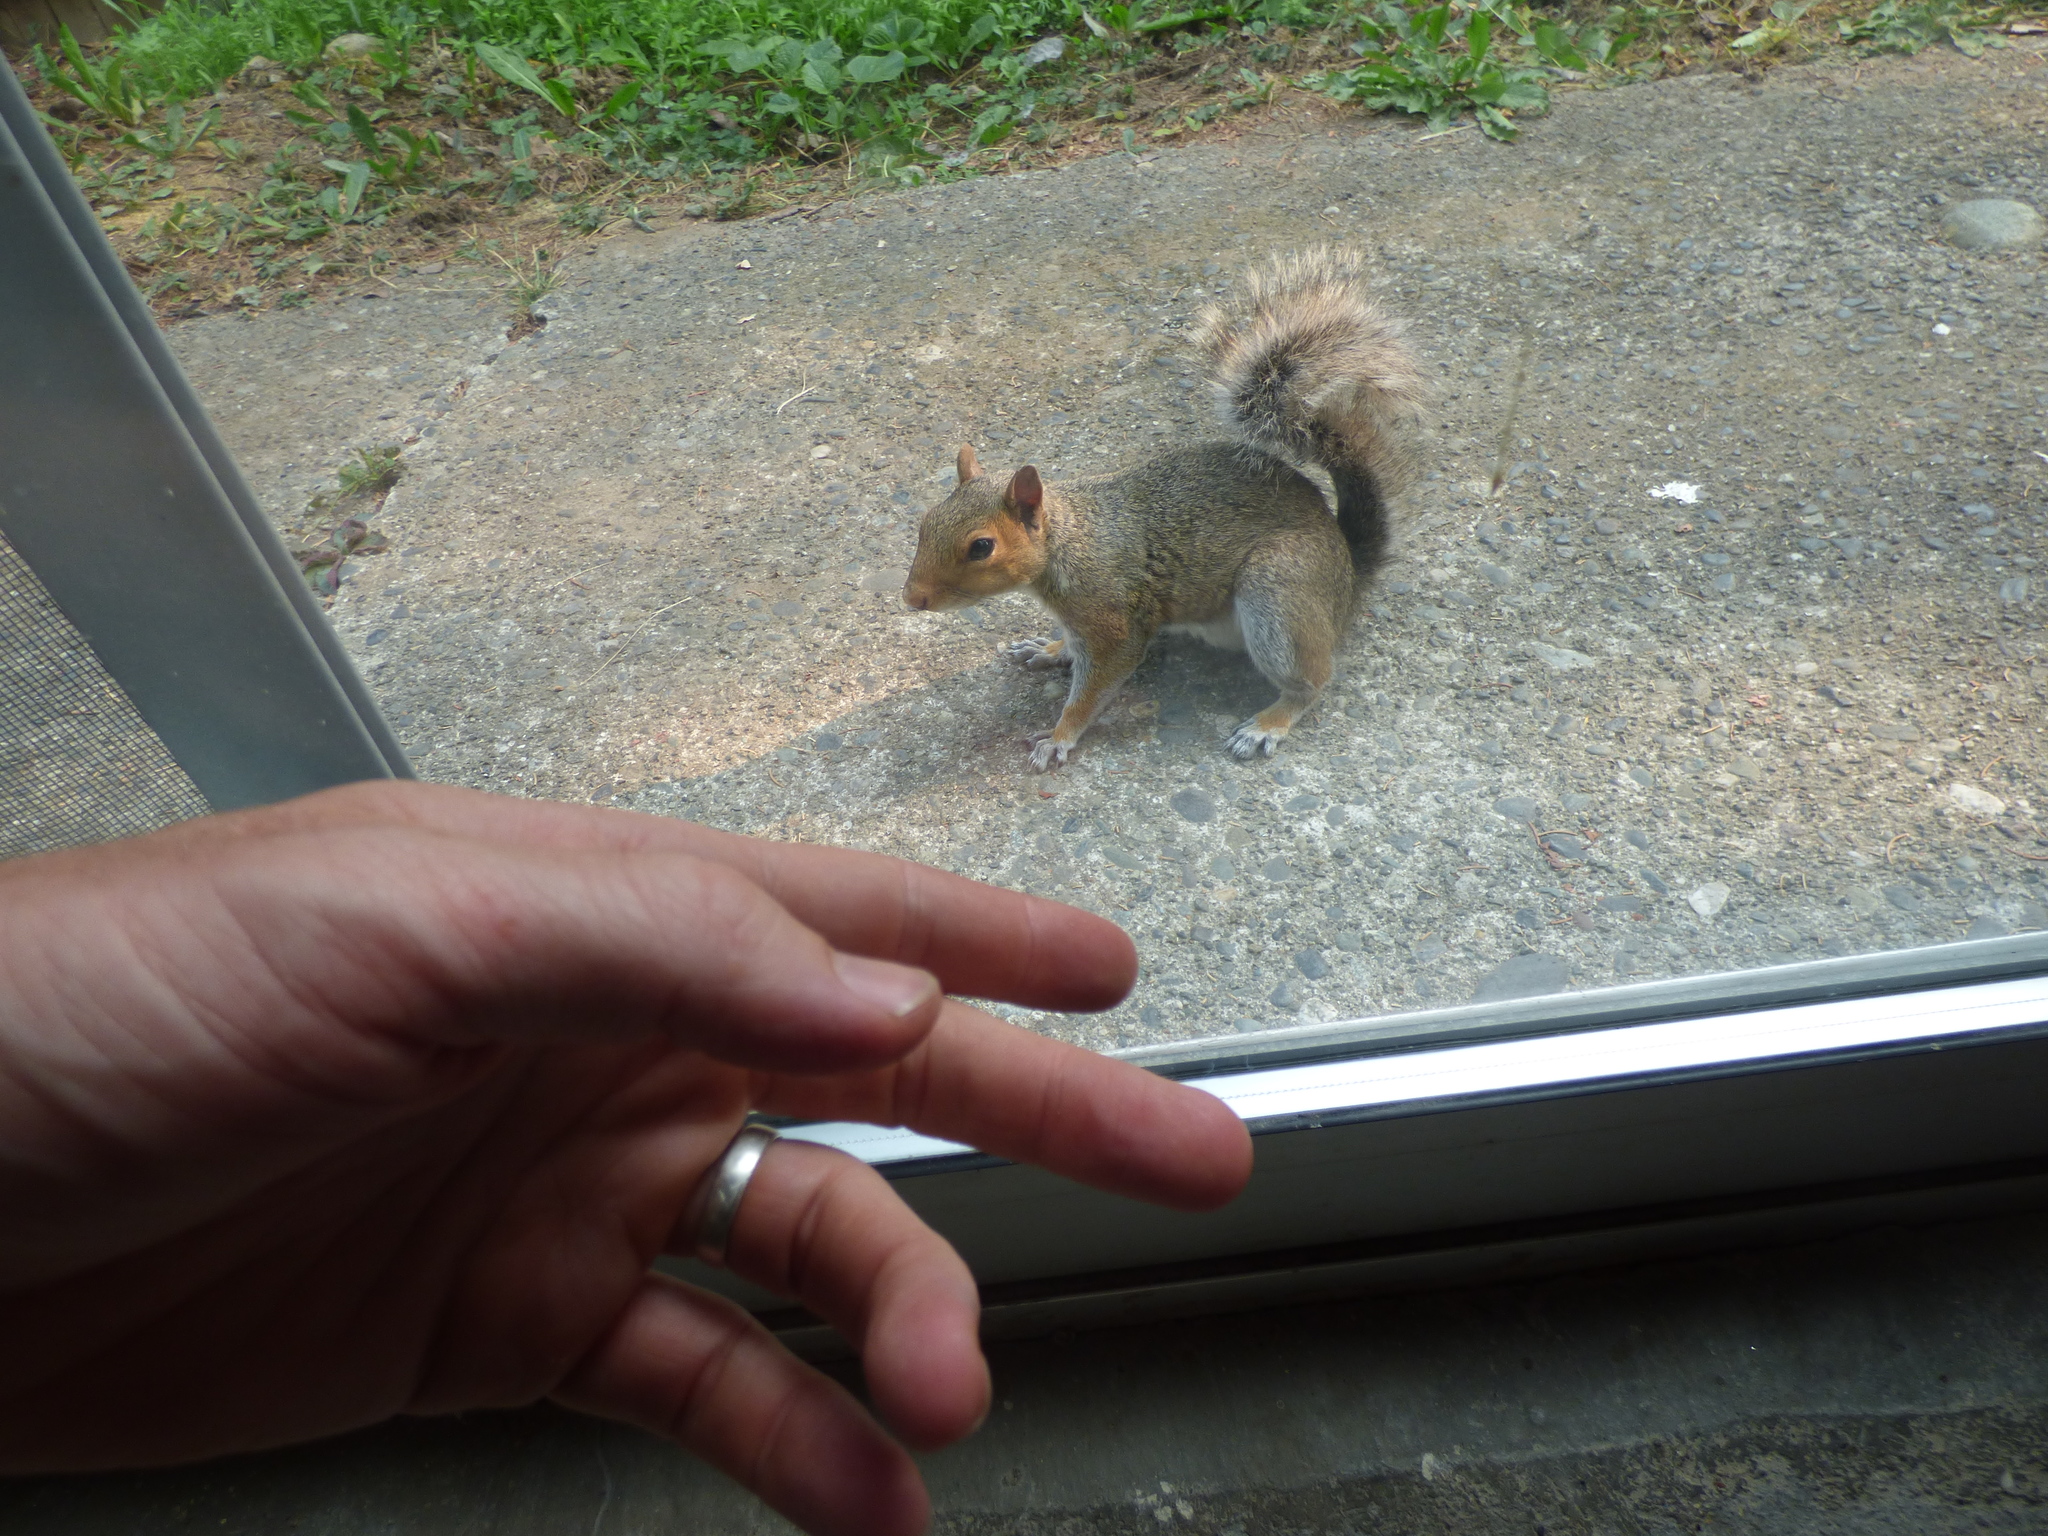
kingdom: Animalia
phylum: Chordata
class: Mammalia
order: Rodentia
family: Sciuridae
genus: Sciurus
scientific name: Sciurus carolinensis
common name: Eastern gray squirrel
